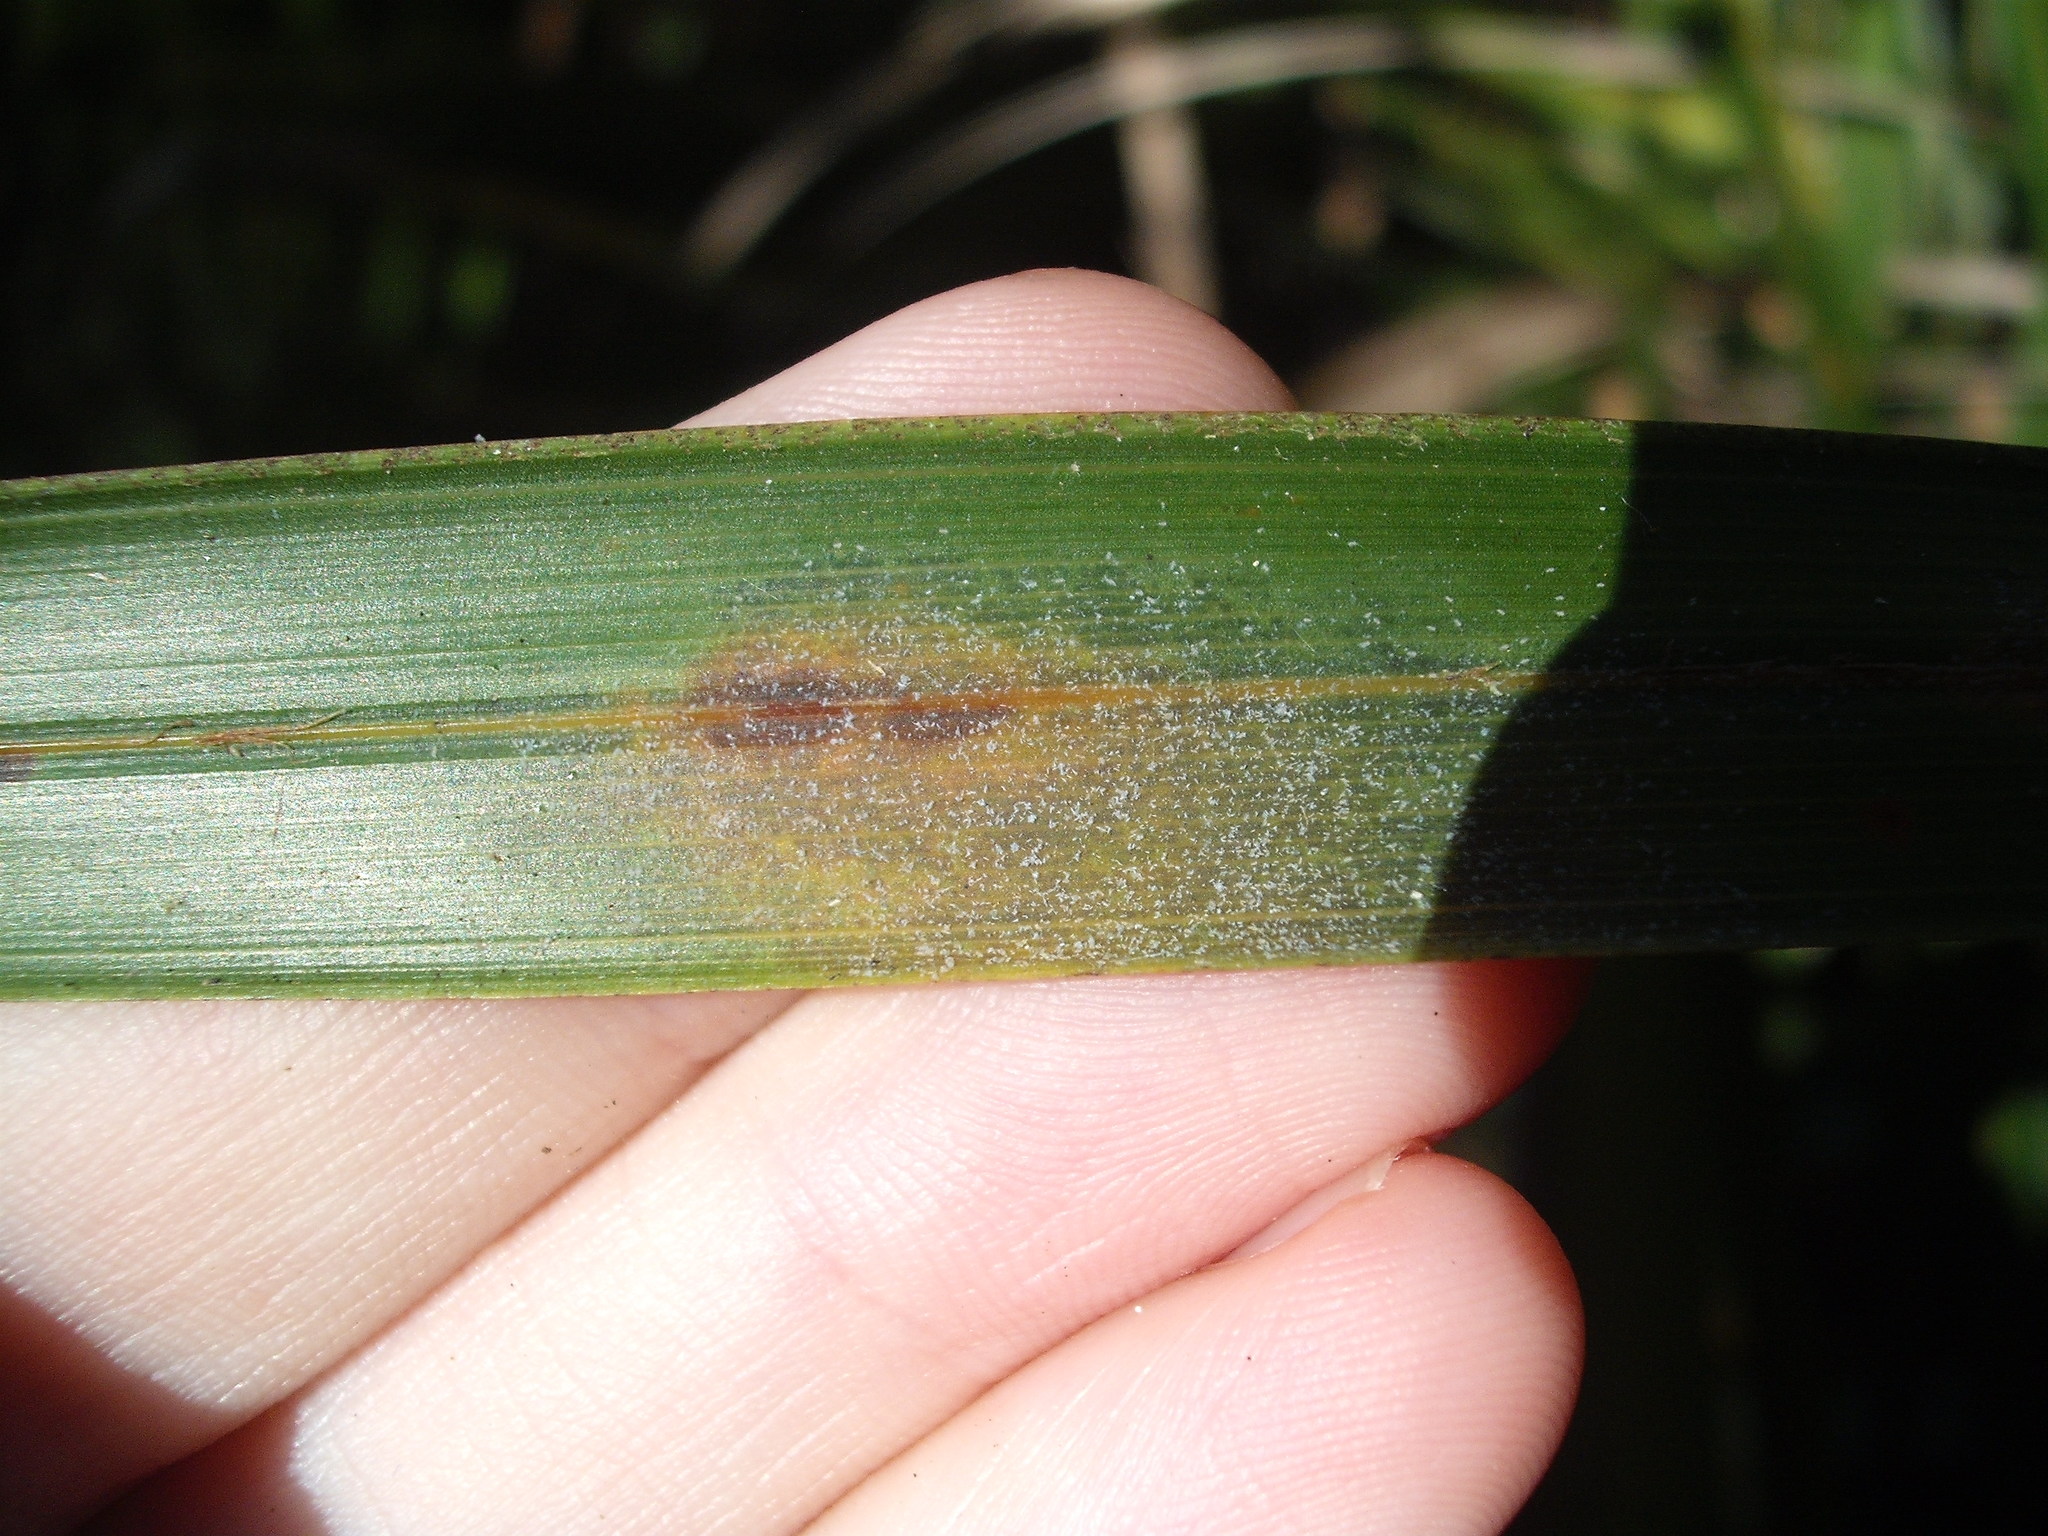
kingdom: Animalia
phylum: Arthropoda
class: Arachnida
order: Trombidiformes
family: Eriophyidae
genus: Nameriophyes ue
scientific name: Nameriophyes ue Nameriophyes sapidae
